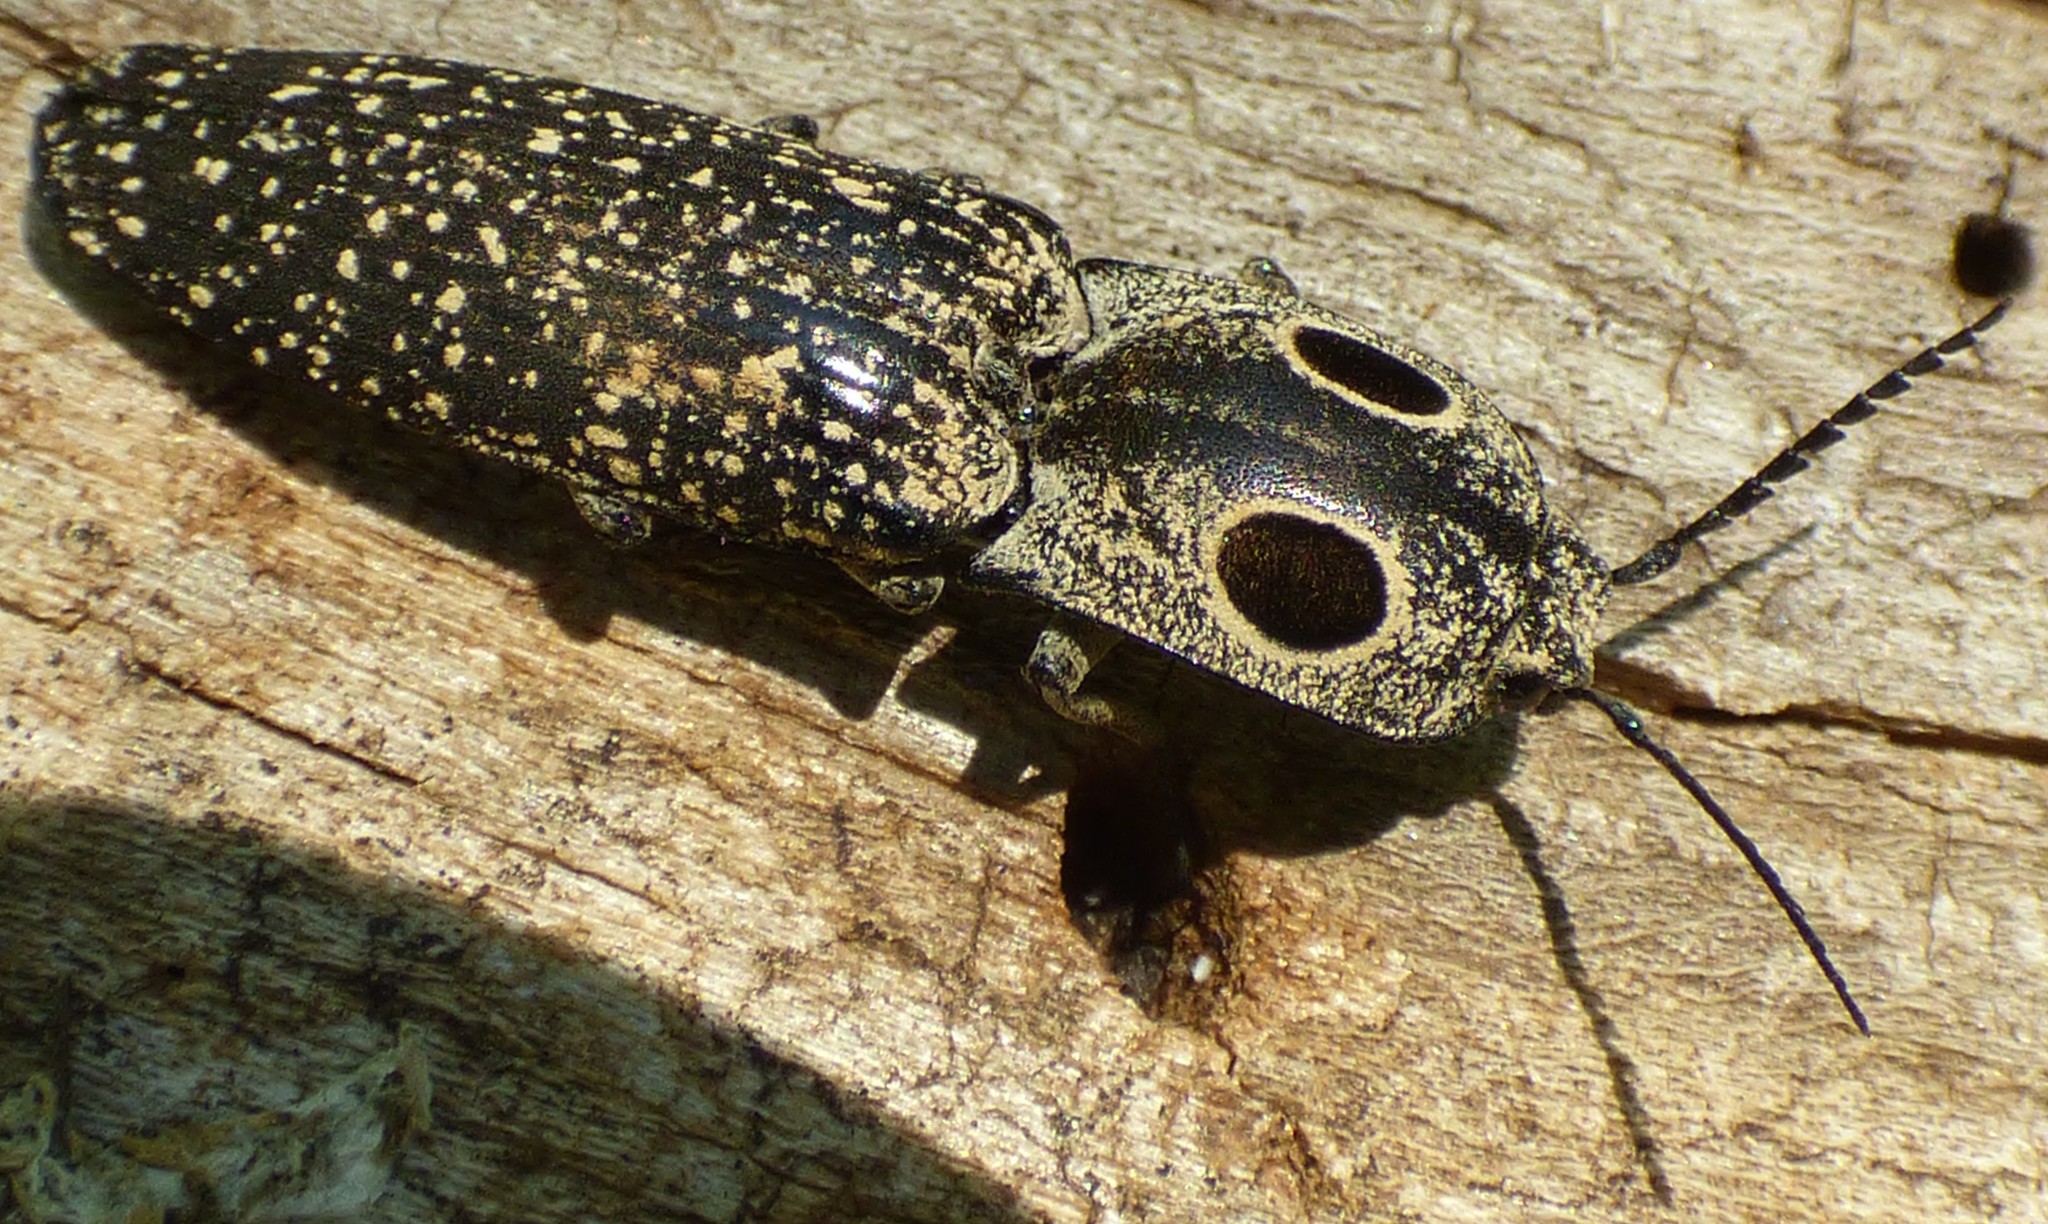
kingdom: Animalia
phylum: Arthropoda
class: Insecta
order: Coleoptera
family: Elateridae
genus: Alaus
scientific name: Alaus oculatus
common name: Eastern eyed click beetle
